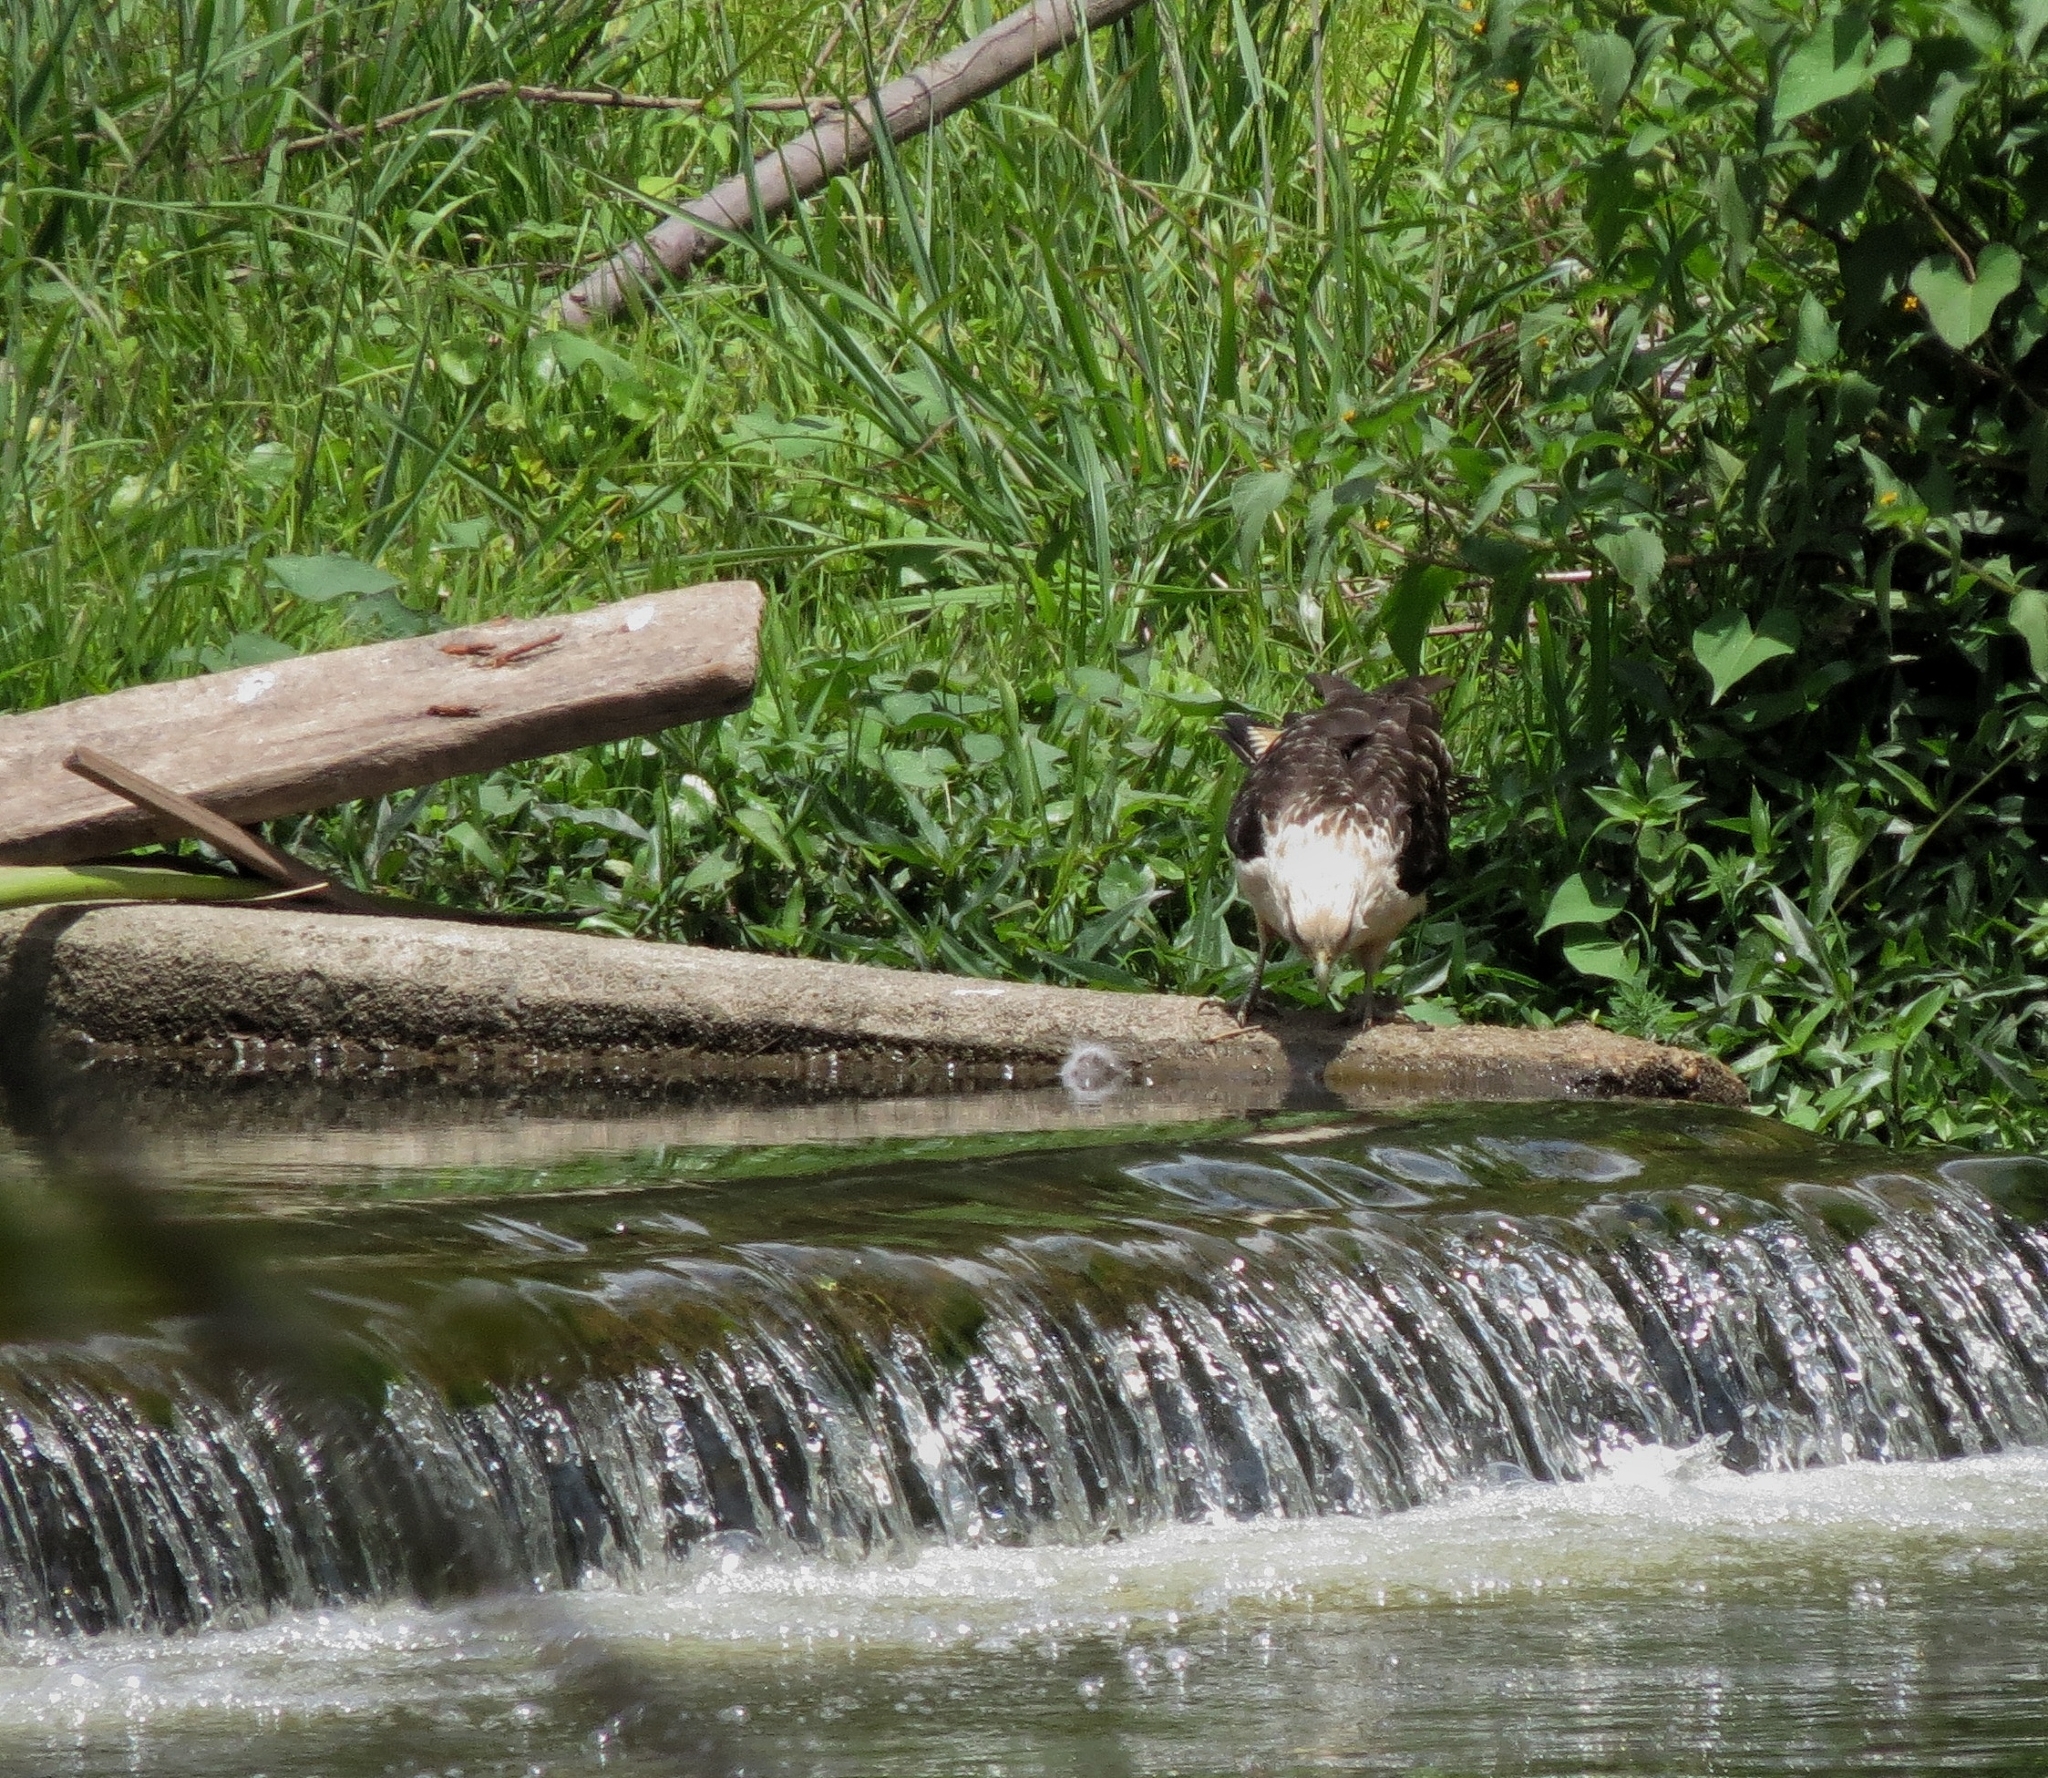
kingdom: Animalia
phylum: Chordata
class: Aves
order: Falconiformes
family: Falconidae
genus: Daptrius
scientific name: Daptrius
